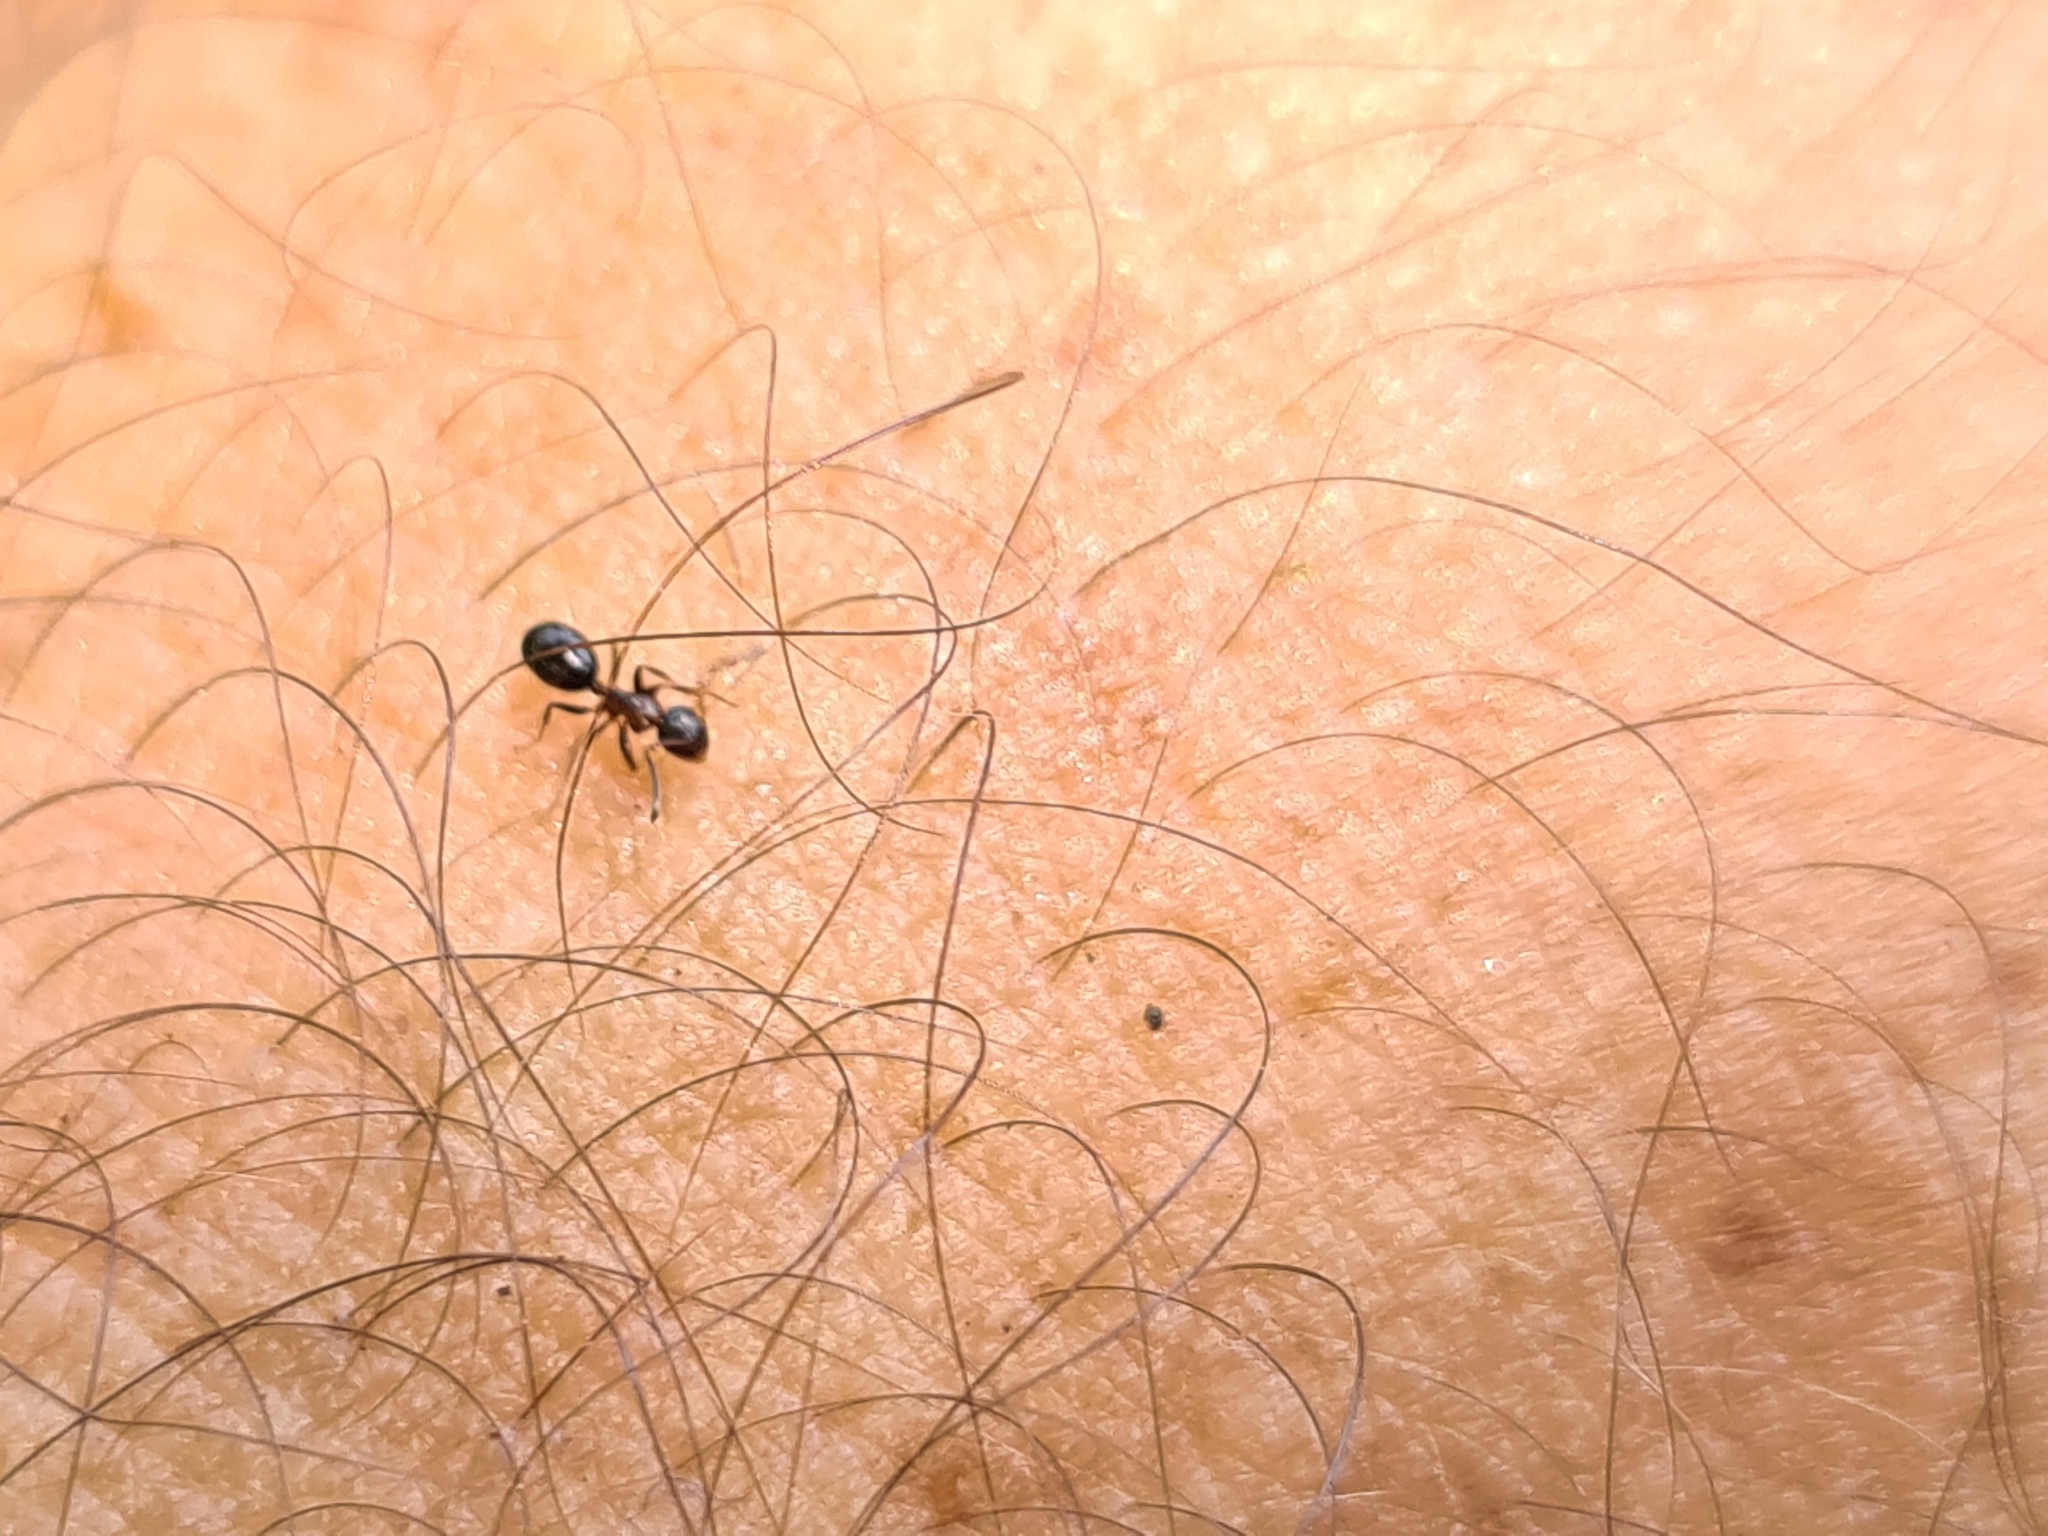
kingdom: Animalia
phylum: Arthropoda
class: Insecta
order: Hymenoptera
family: Formicidae
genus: Camponotus
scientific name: Camponotus truncatus
